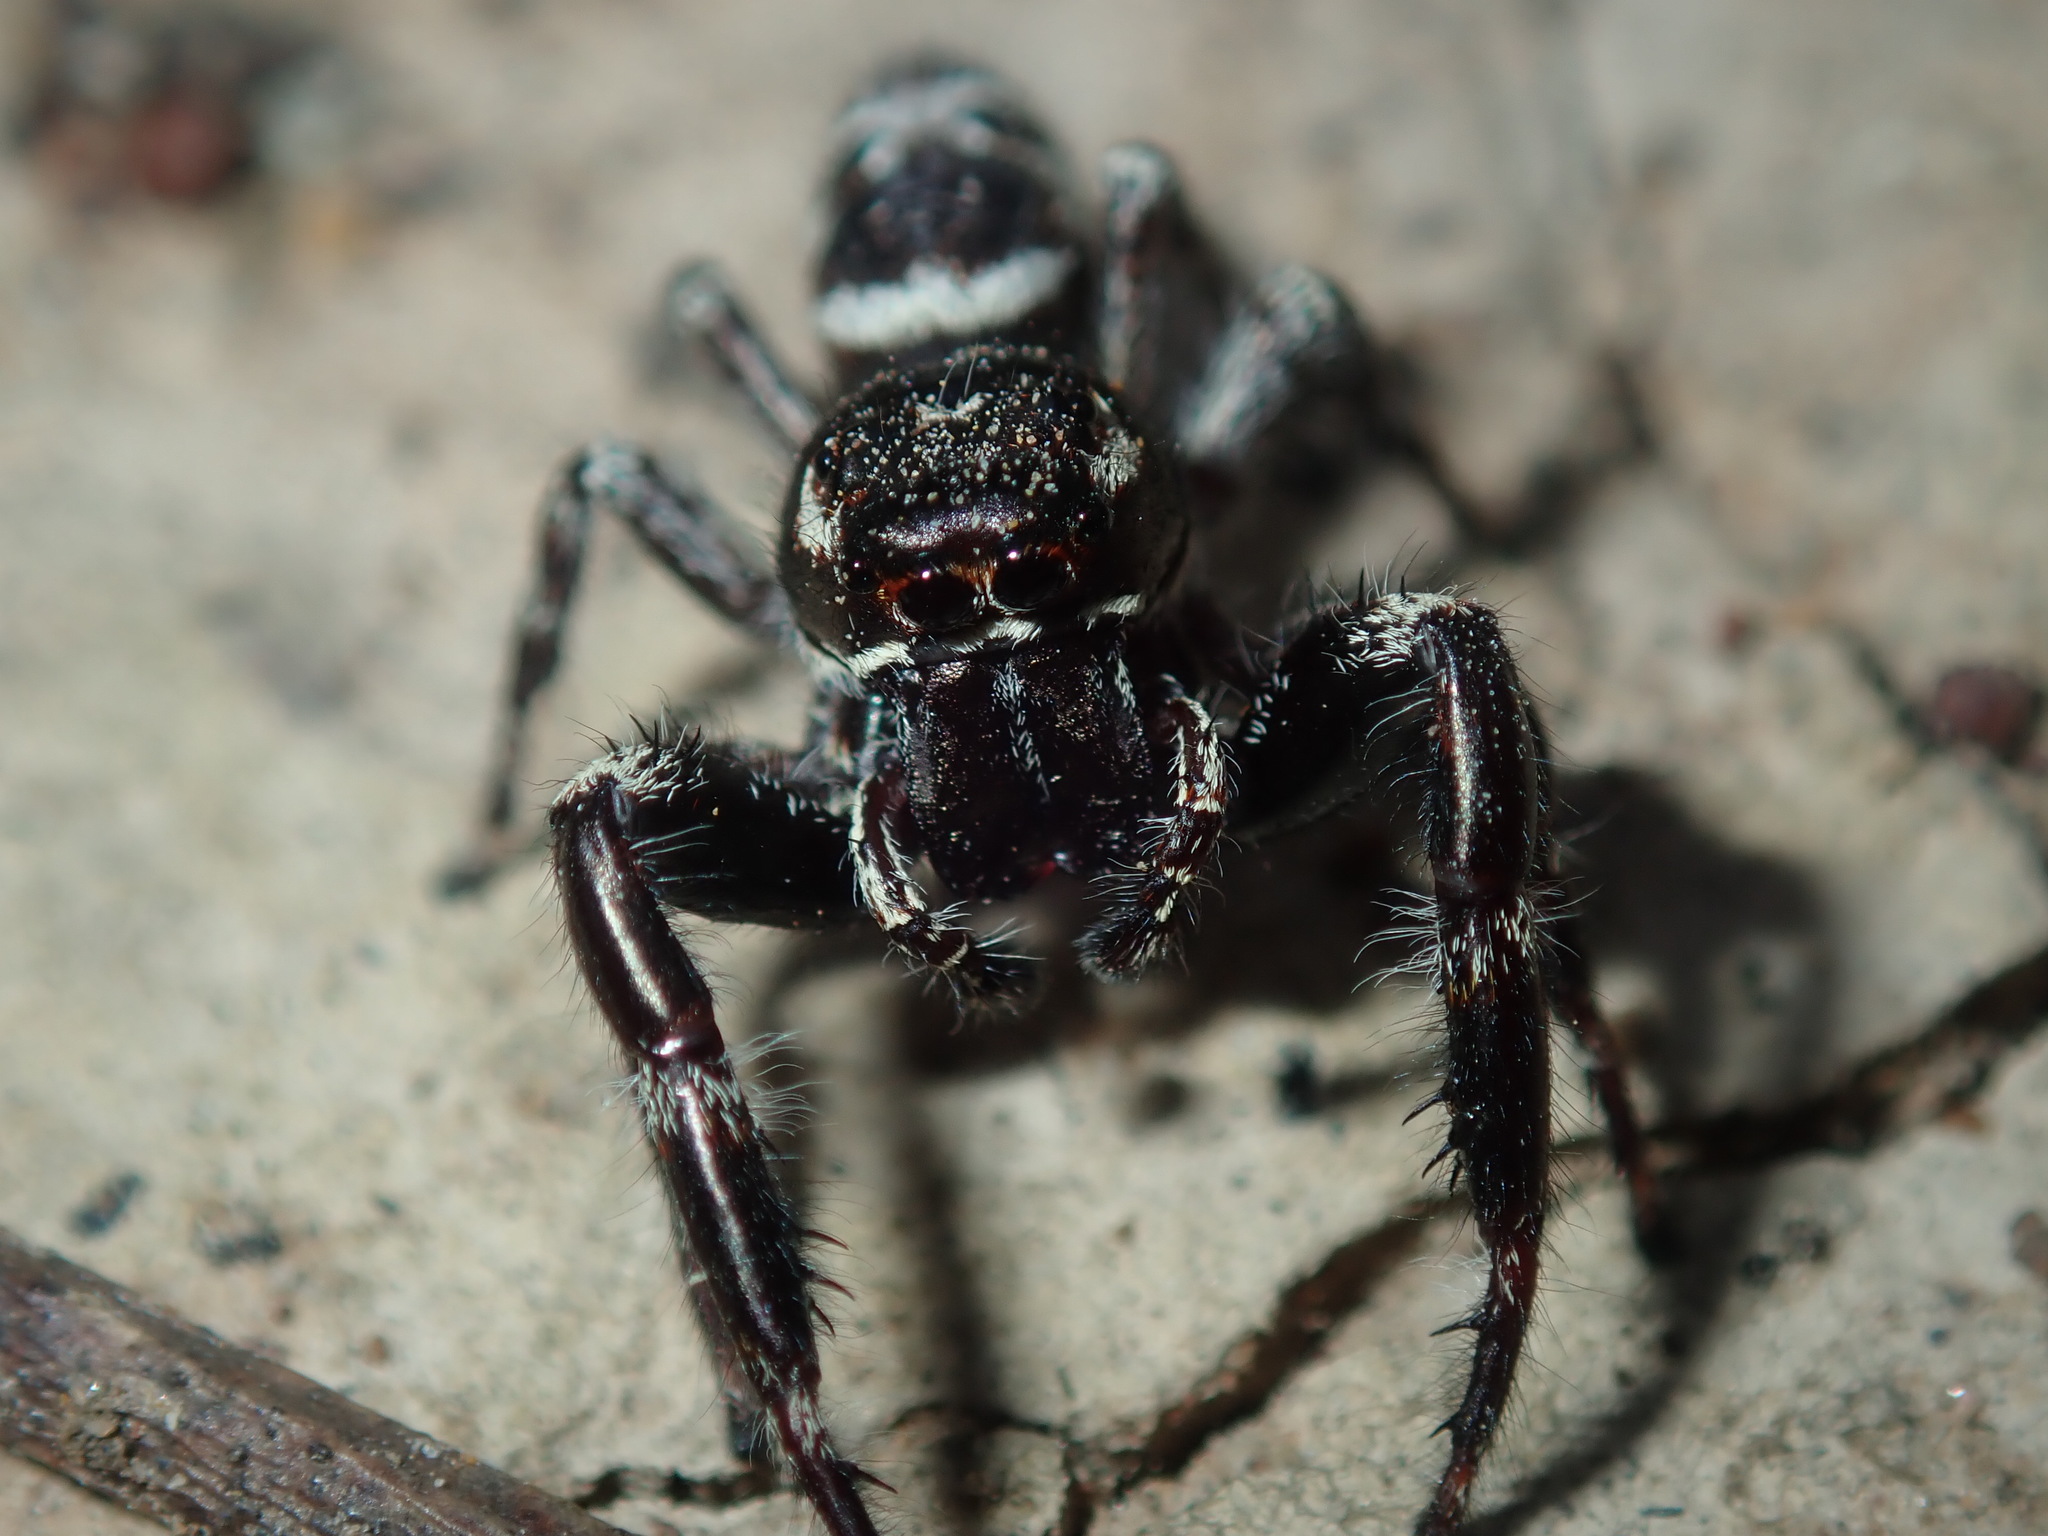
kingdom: Animalia
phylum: Arthropoda
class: Arachnida
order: Araneae
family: Salticidae
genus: Sandalodes
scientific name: Sandalodes superbus
